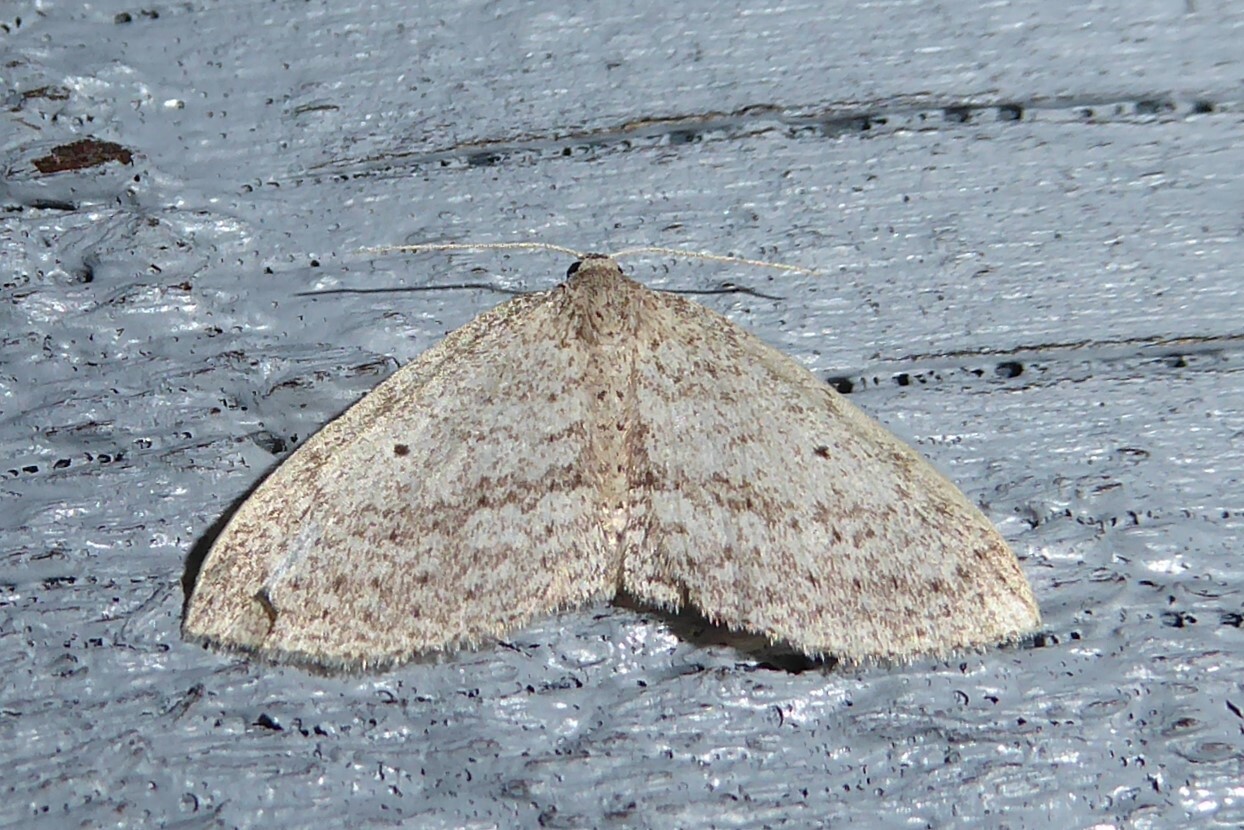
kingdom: Animalia
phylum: Arthropoda
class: Insecta
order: Lepidoptera
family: Geometridae
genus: Poecilasthena
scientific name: Poecilasthena schistaria
